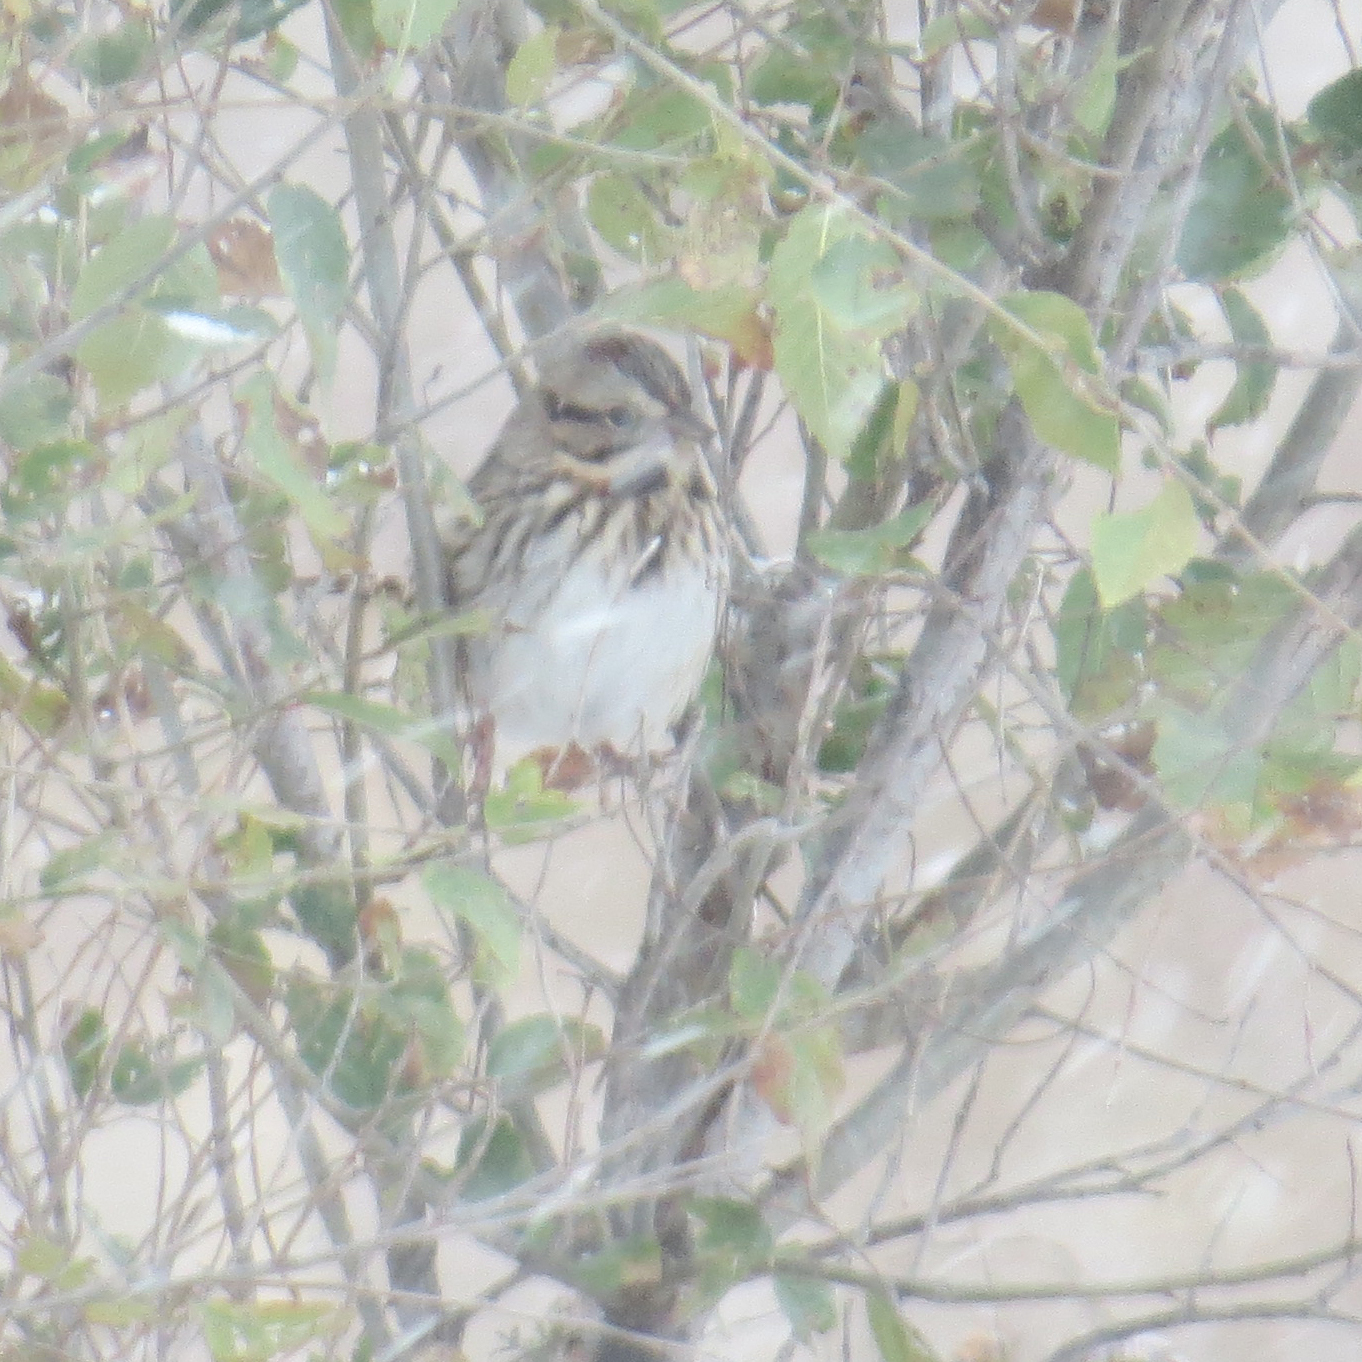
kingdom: Animalia
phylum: Chordata
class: Aves
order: Passeriformes
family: Passerellidae
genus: Melospiza
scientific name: Melospiza melodia
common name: Song sparrow
